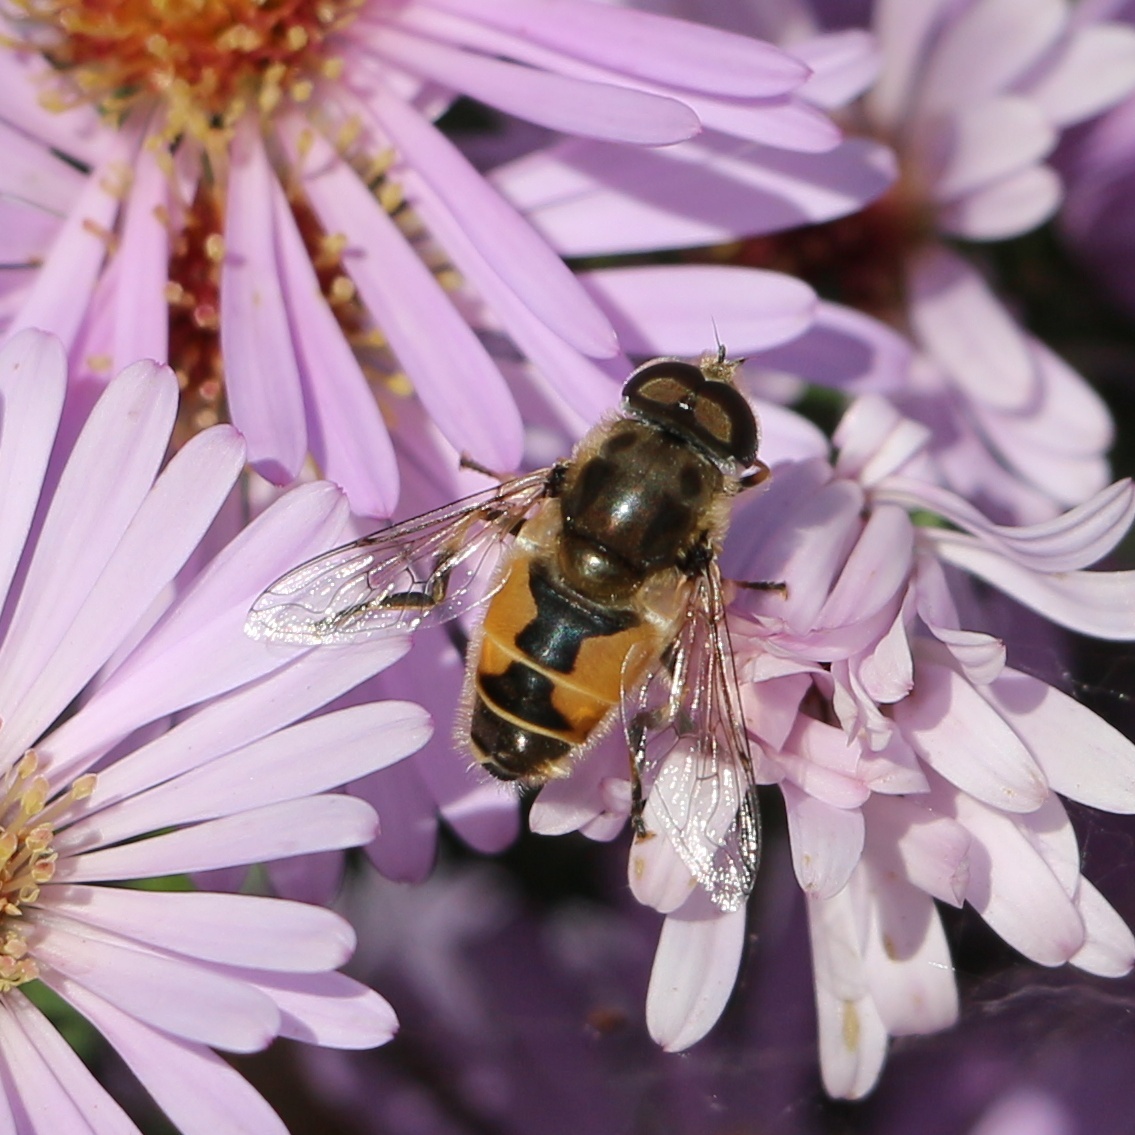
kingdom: Animalia
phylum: Arthropoda
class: Insecta
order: Diptera
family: Syrphidae
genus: Eristalis
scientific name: Eristalis arbustorum
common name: Hover fly
